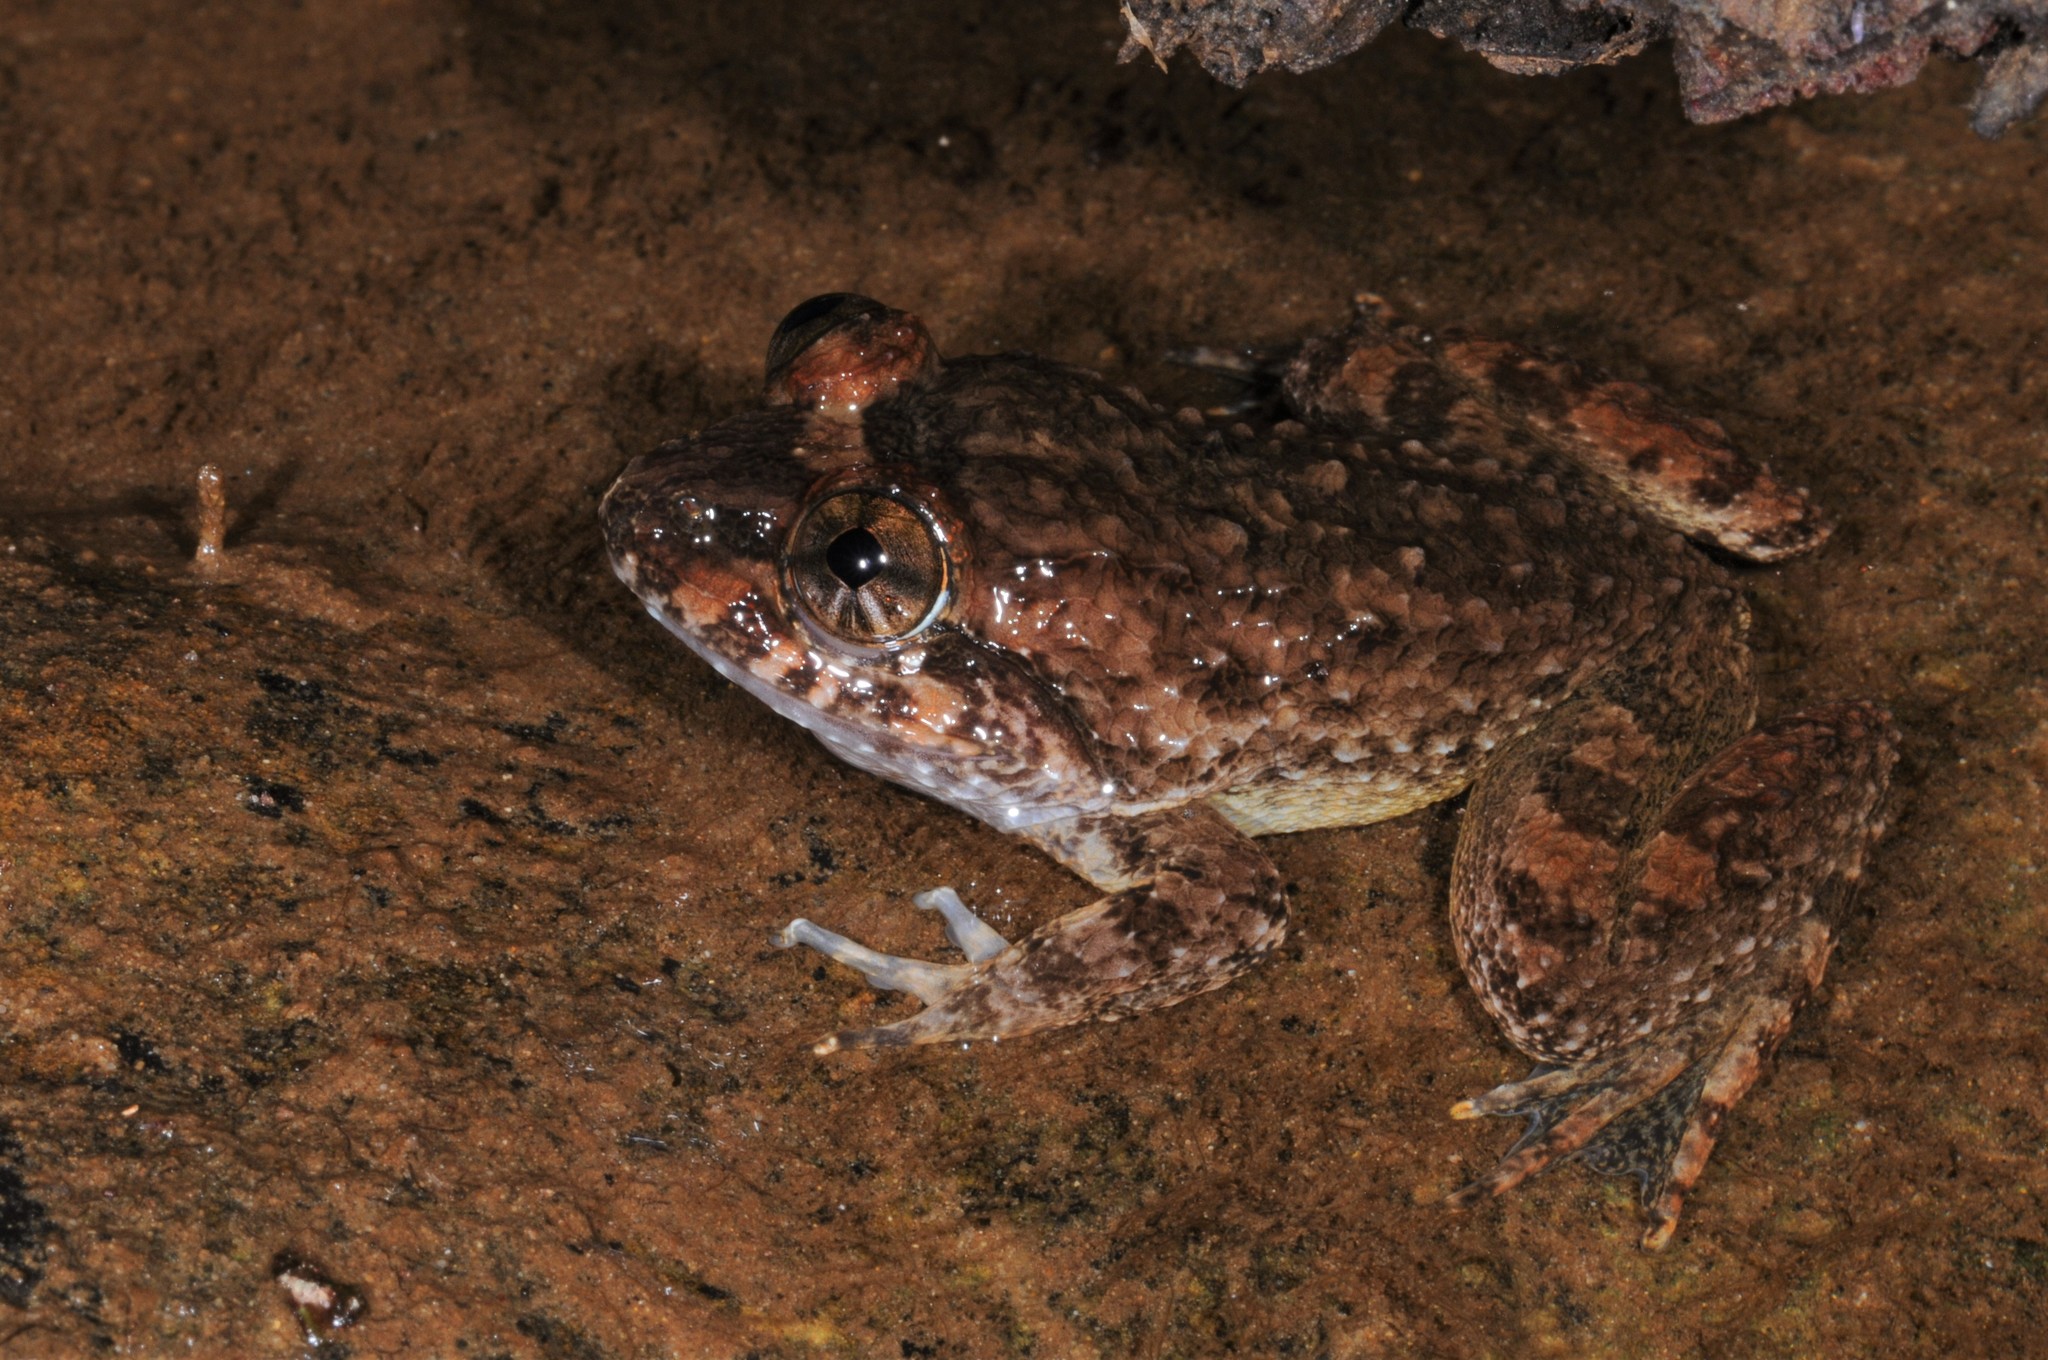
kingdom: Animalia
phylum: Chordata
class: Amphibia
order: Anura
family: Dicroglossidae
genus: Limnonectes
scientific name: Limnonectes kong
